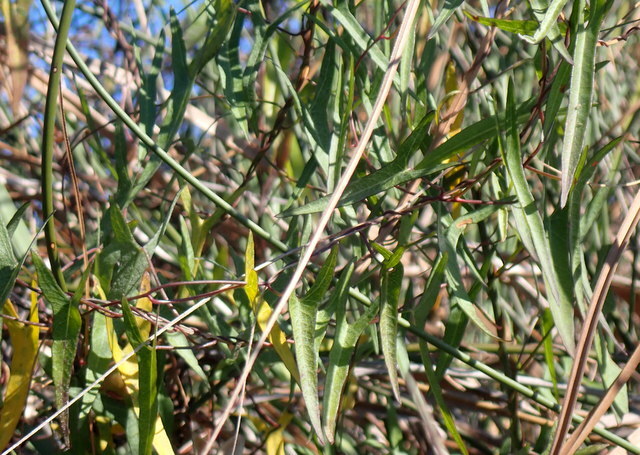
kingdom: Plantae
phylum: Tracheophyta
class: Magnoliopsida
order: Solanales
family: Convolvulaceae
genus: Ipomoea
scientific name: Ipomoea sagittata
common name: Saltmarsh morning glory
